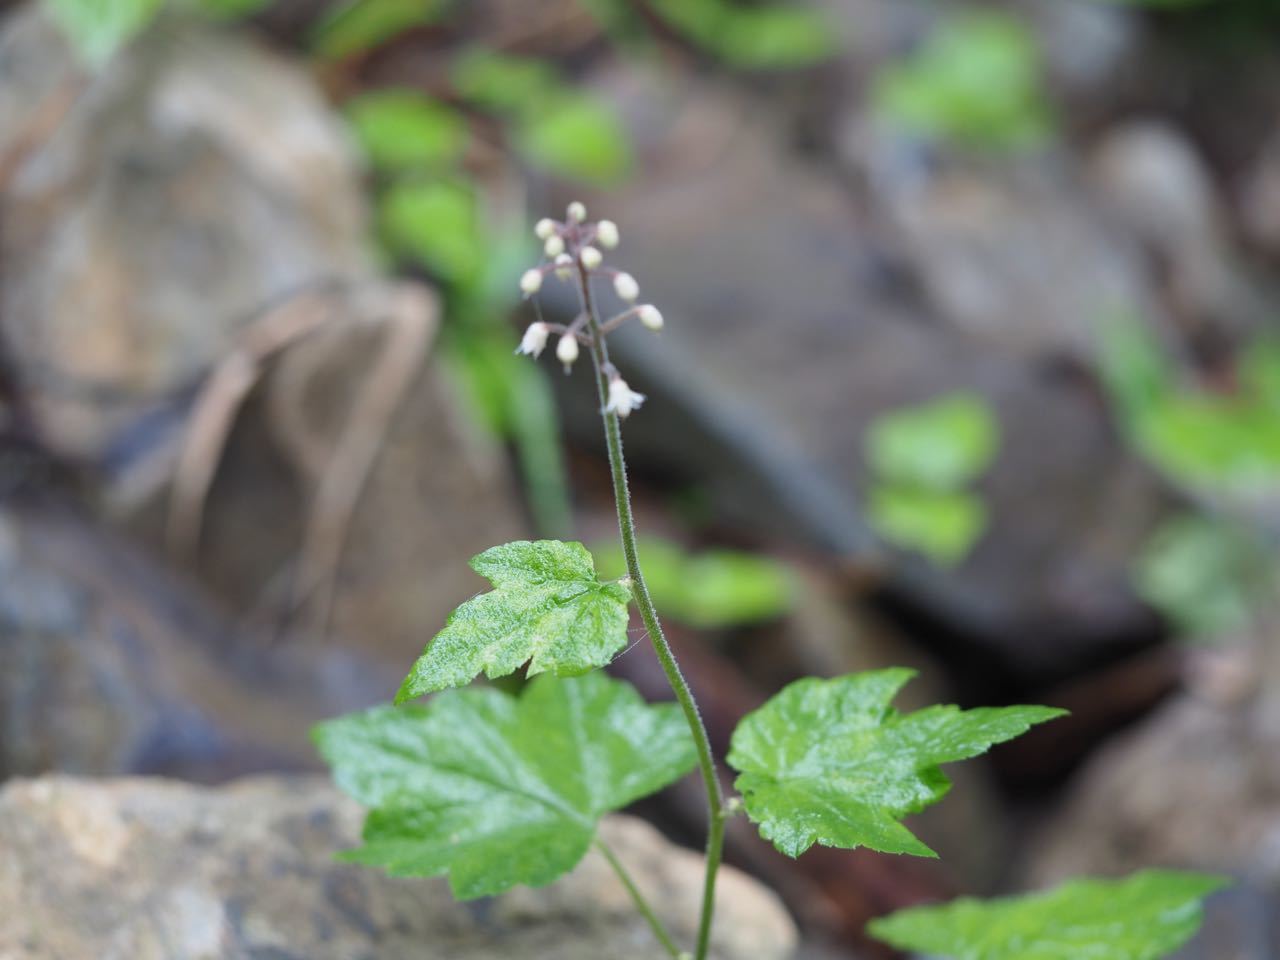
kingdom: Plantae
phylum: Tracheophyta
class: Magnoliopsida
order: Saxifragales
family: Saxifragaceae
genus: Tiarella
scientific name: Tiarella polyphylla
